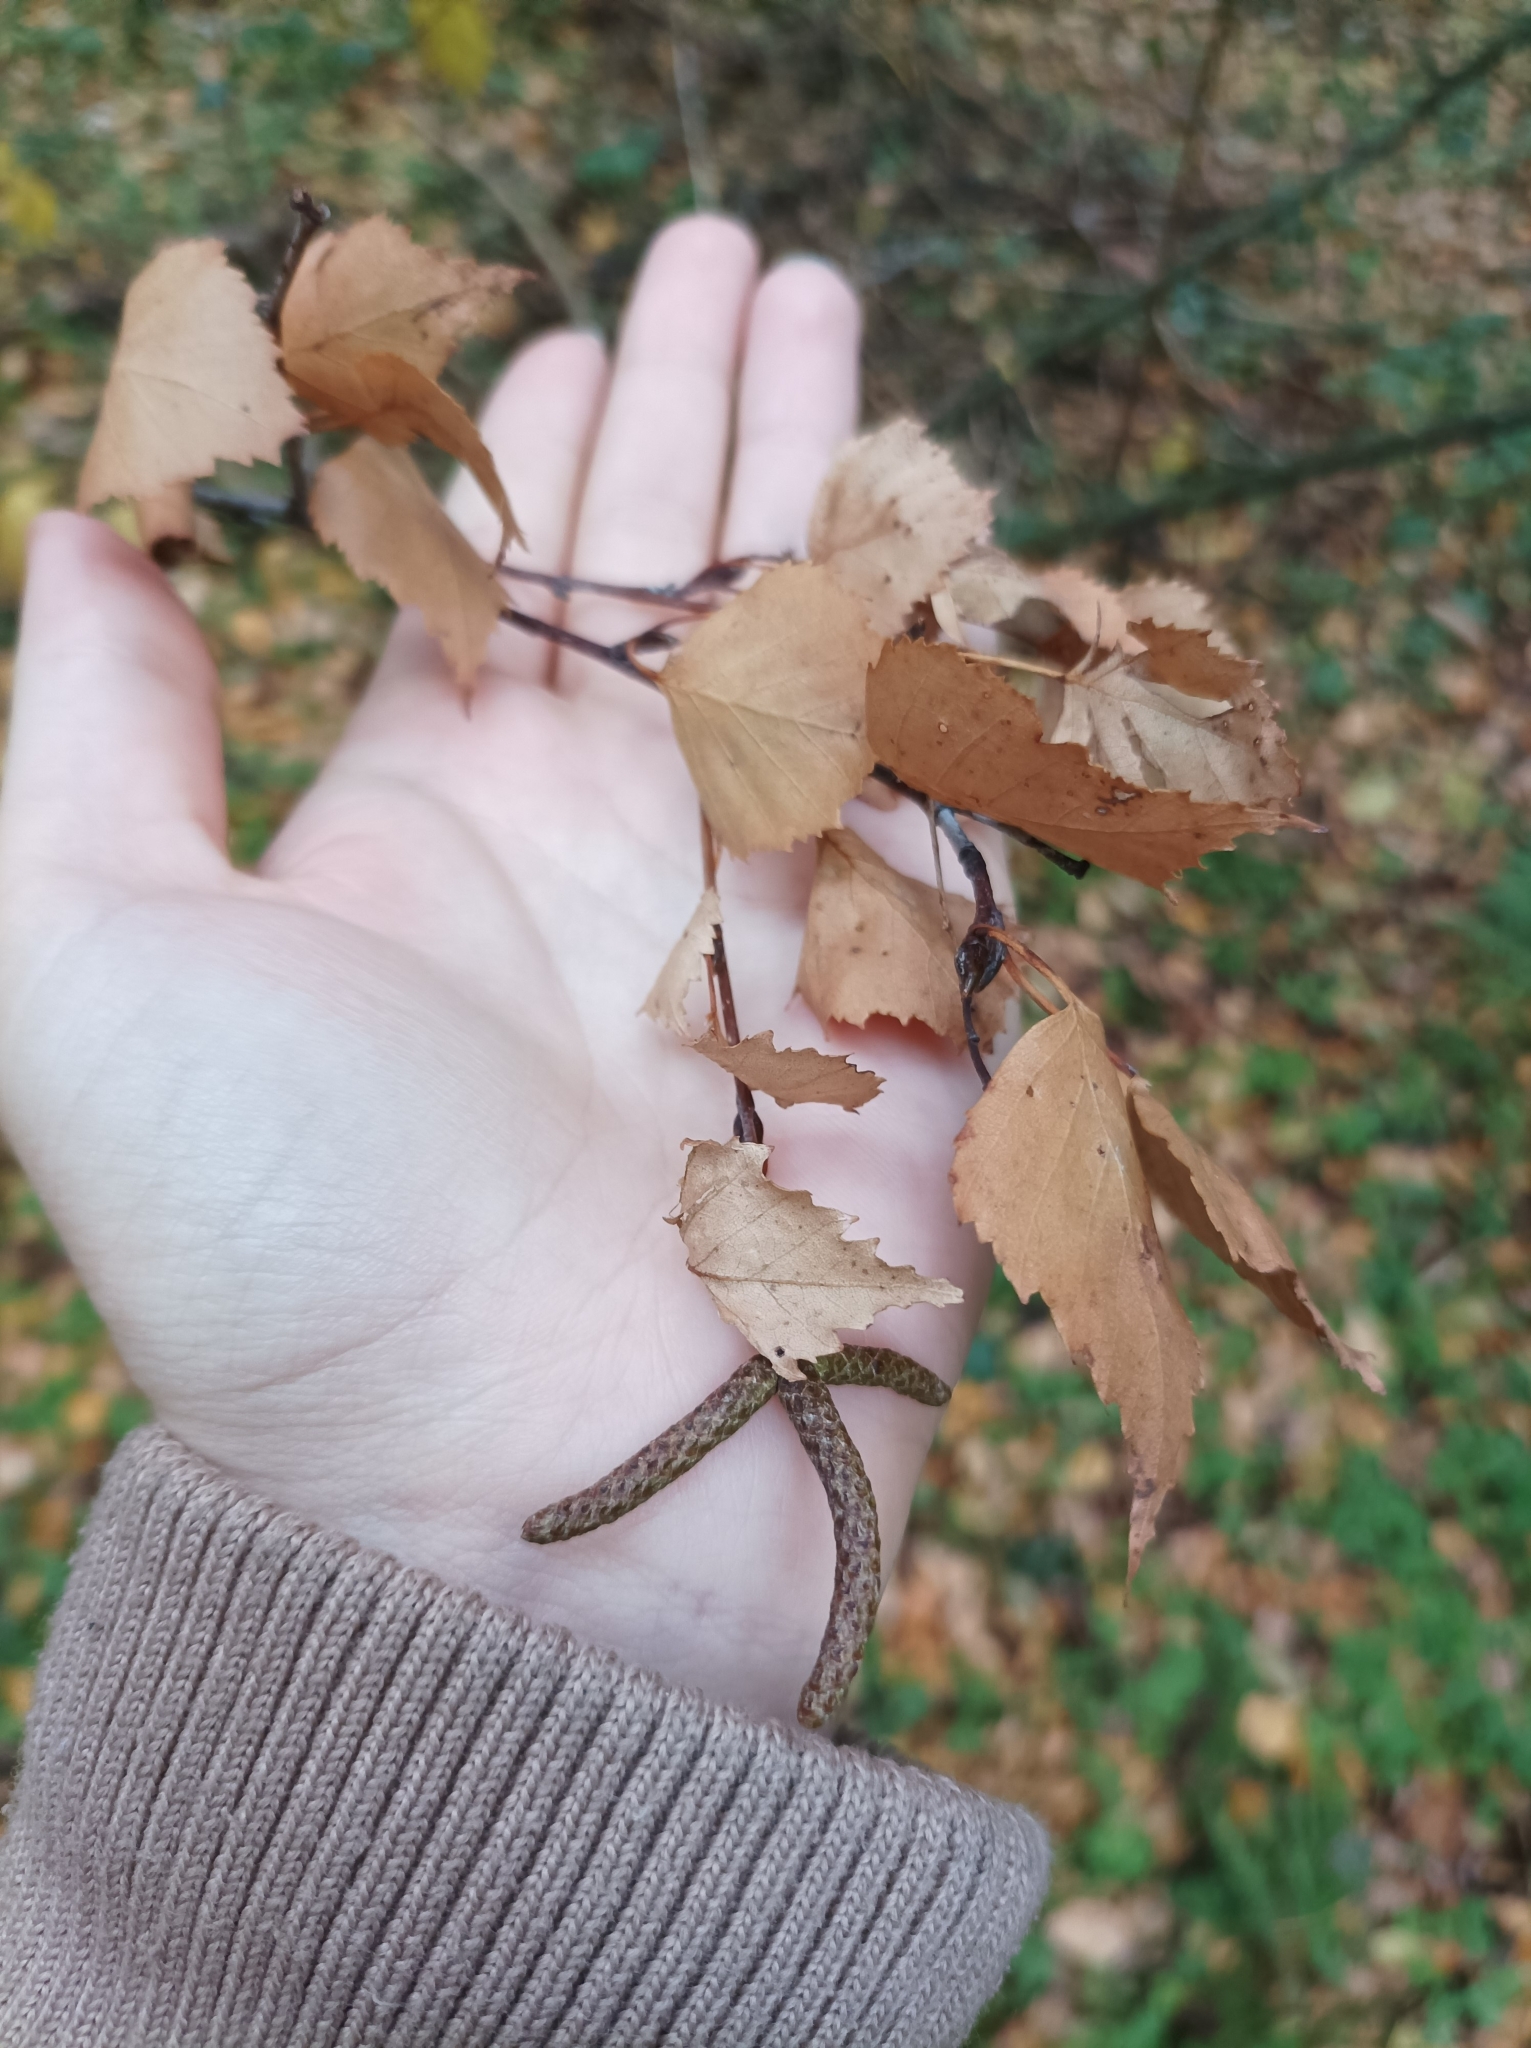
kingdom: Plantae
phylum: Tracheophyta
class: Magnoliopsida
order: Fagales
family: Betulaceae
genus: Betula
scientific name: Betula pendula
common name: Silver birch
